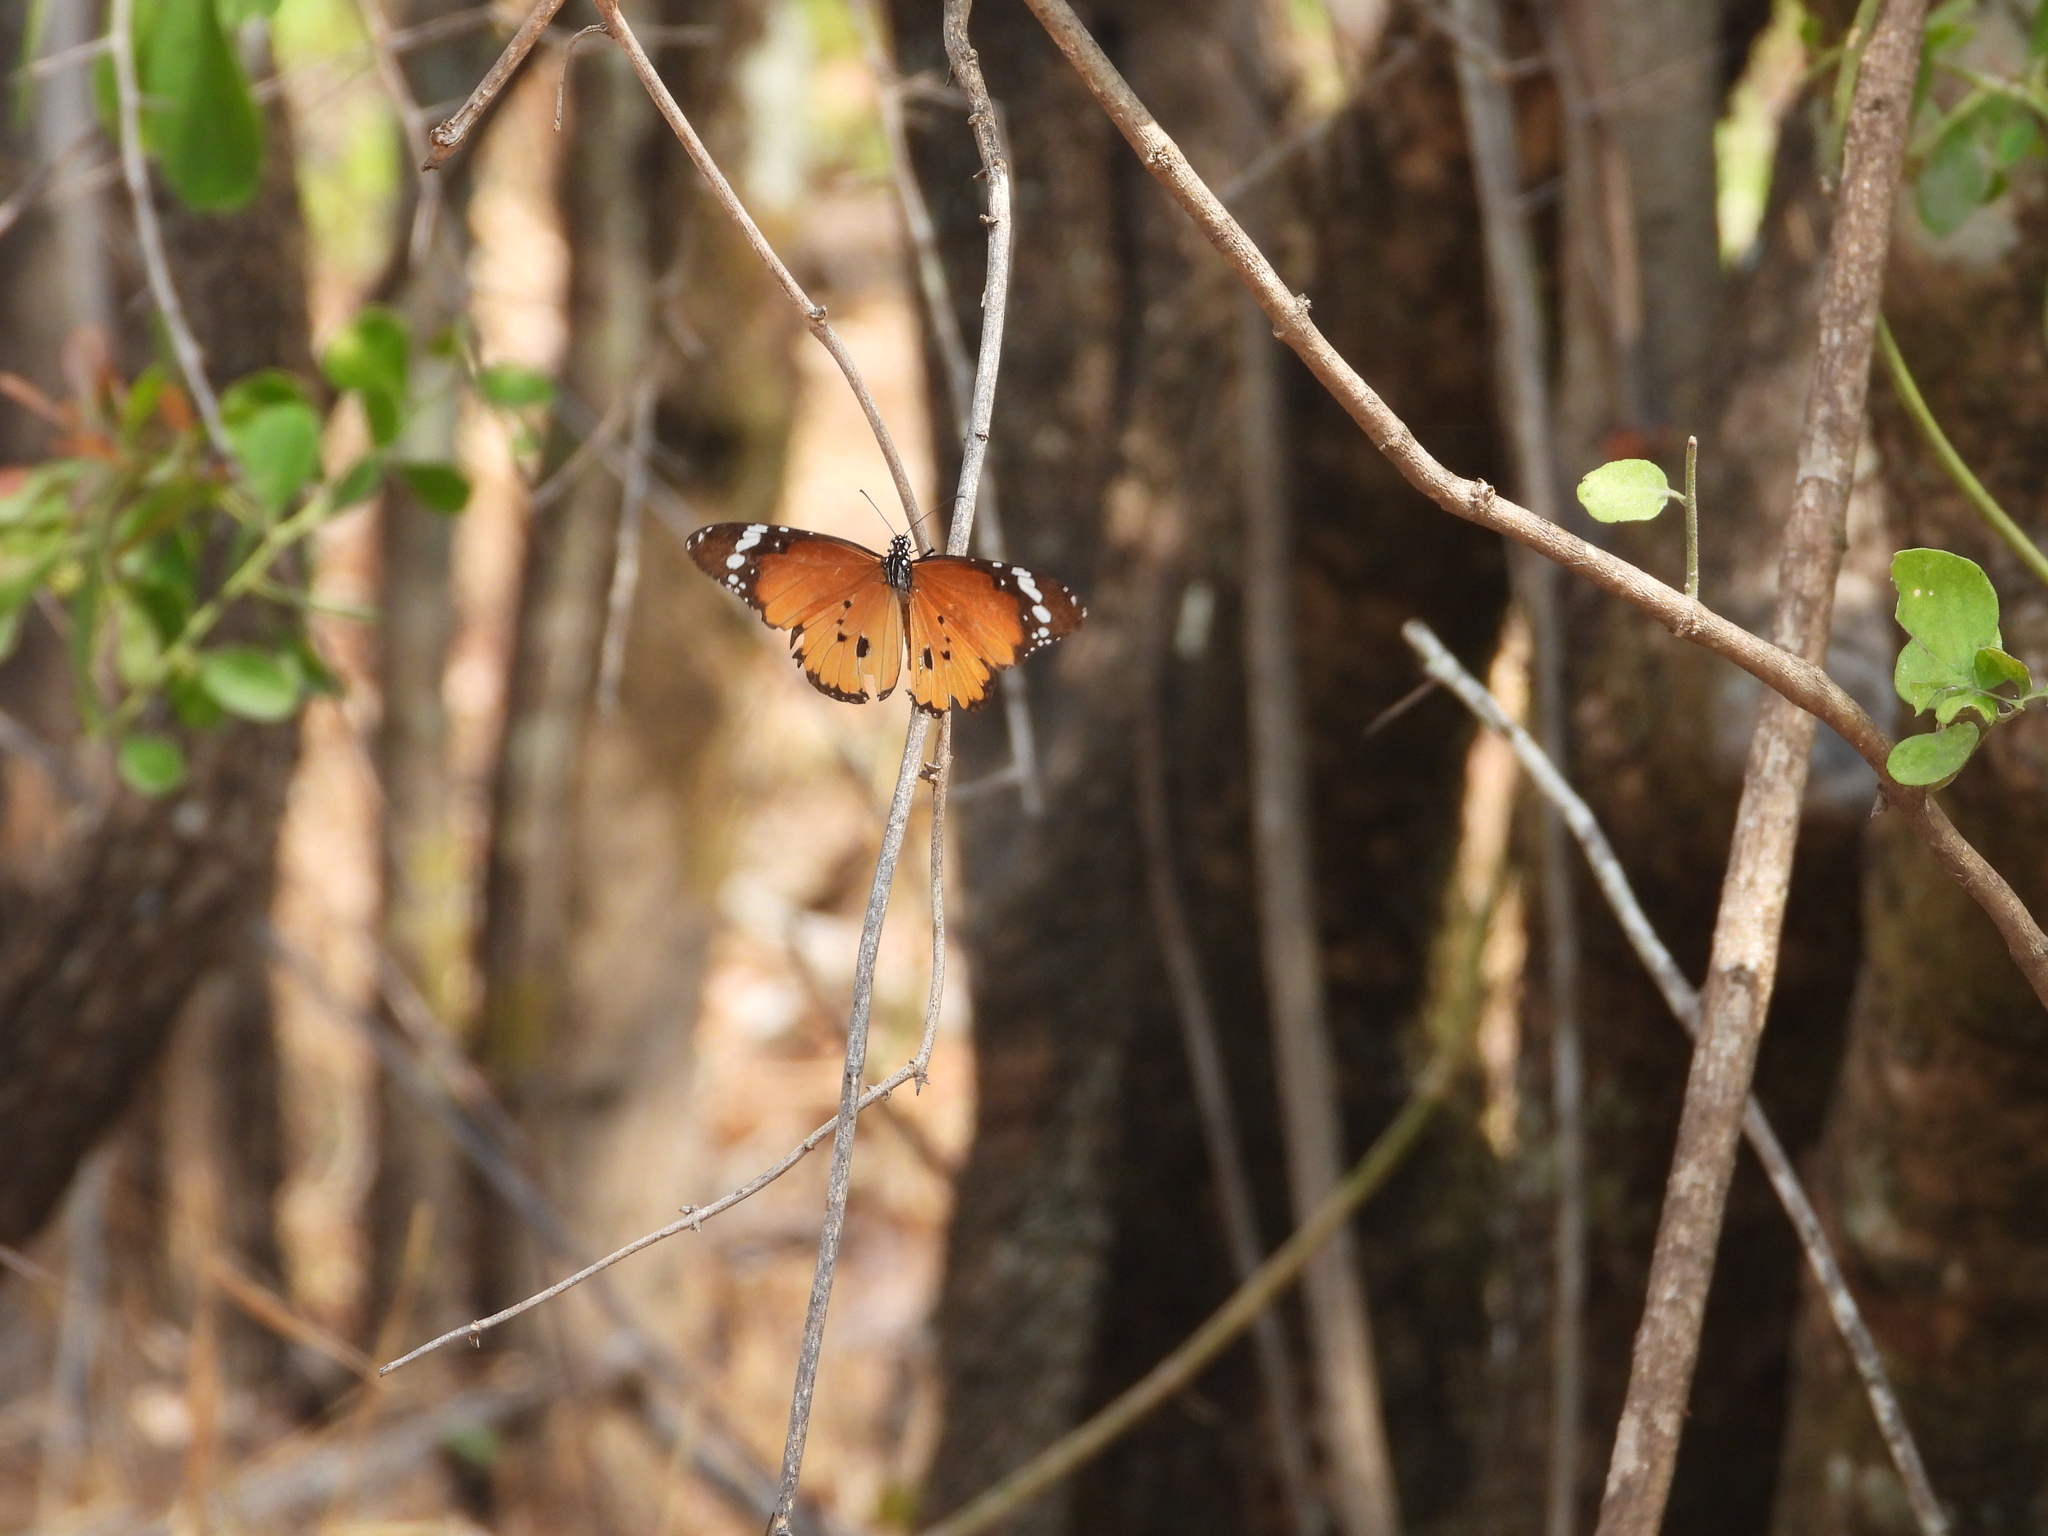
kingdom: Animalia
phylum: Arthropoda
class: Insecta
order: Lepidoptera
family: Nymphalidae
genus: Danaus
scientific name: Danaus chrysippus
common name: Plain tiger
